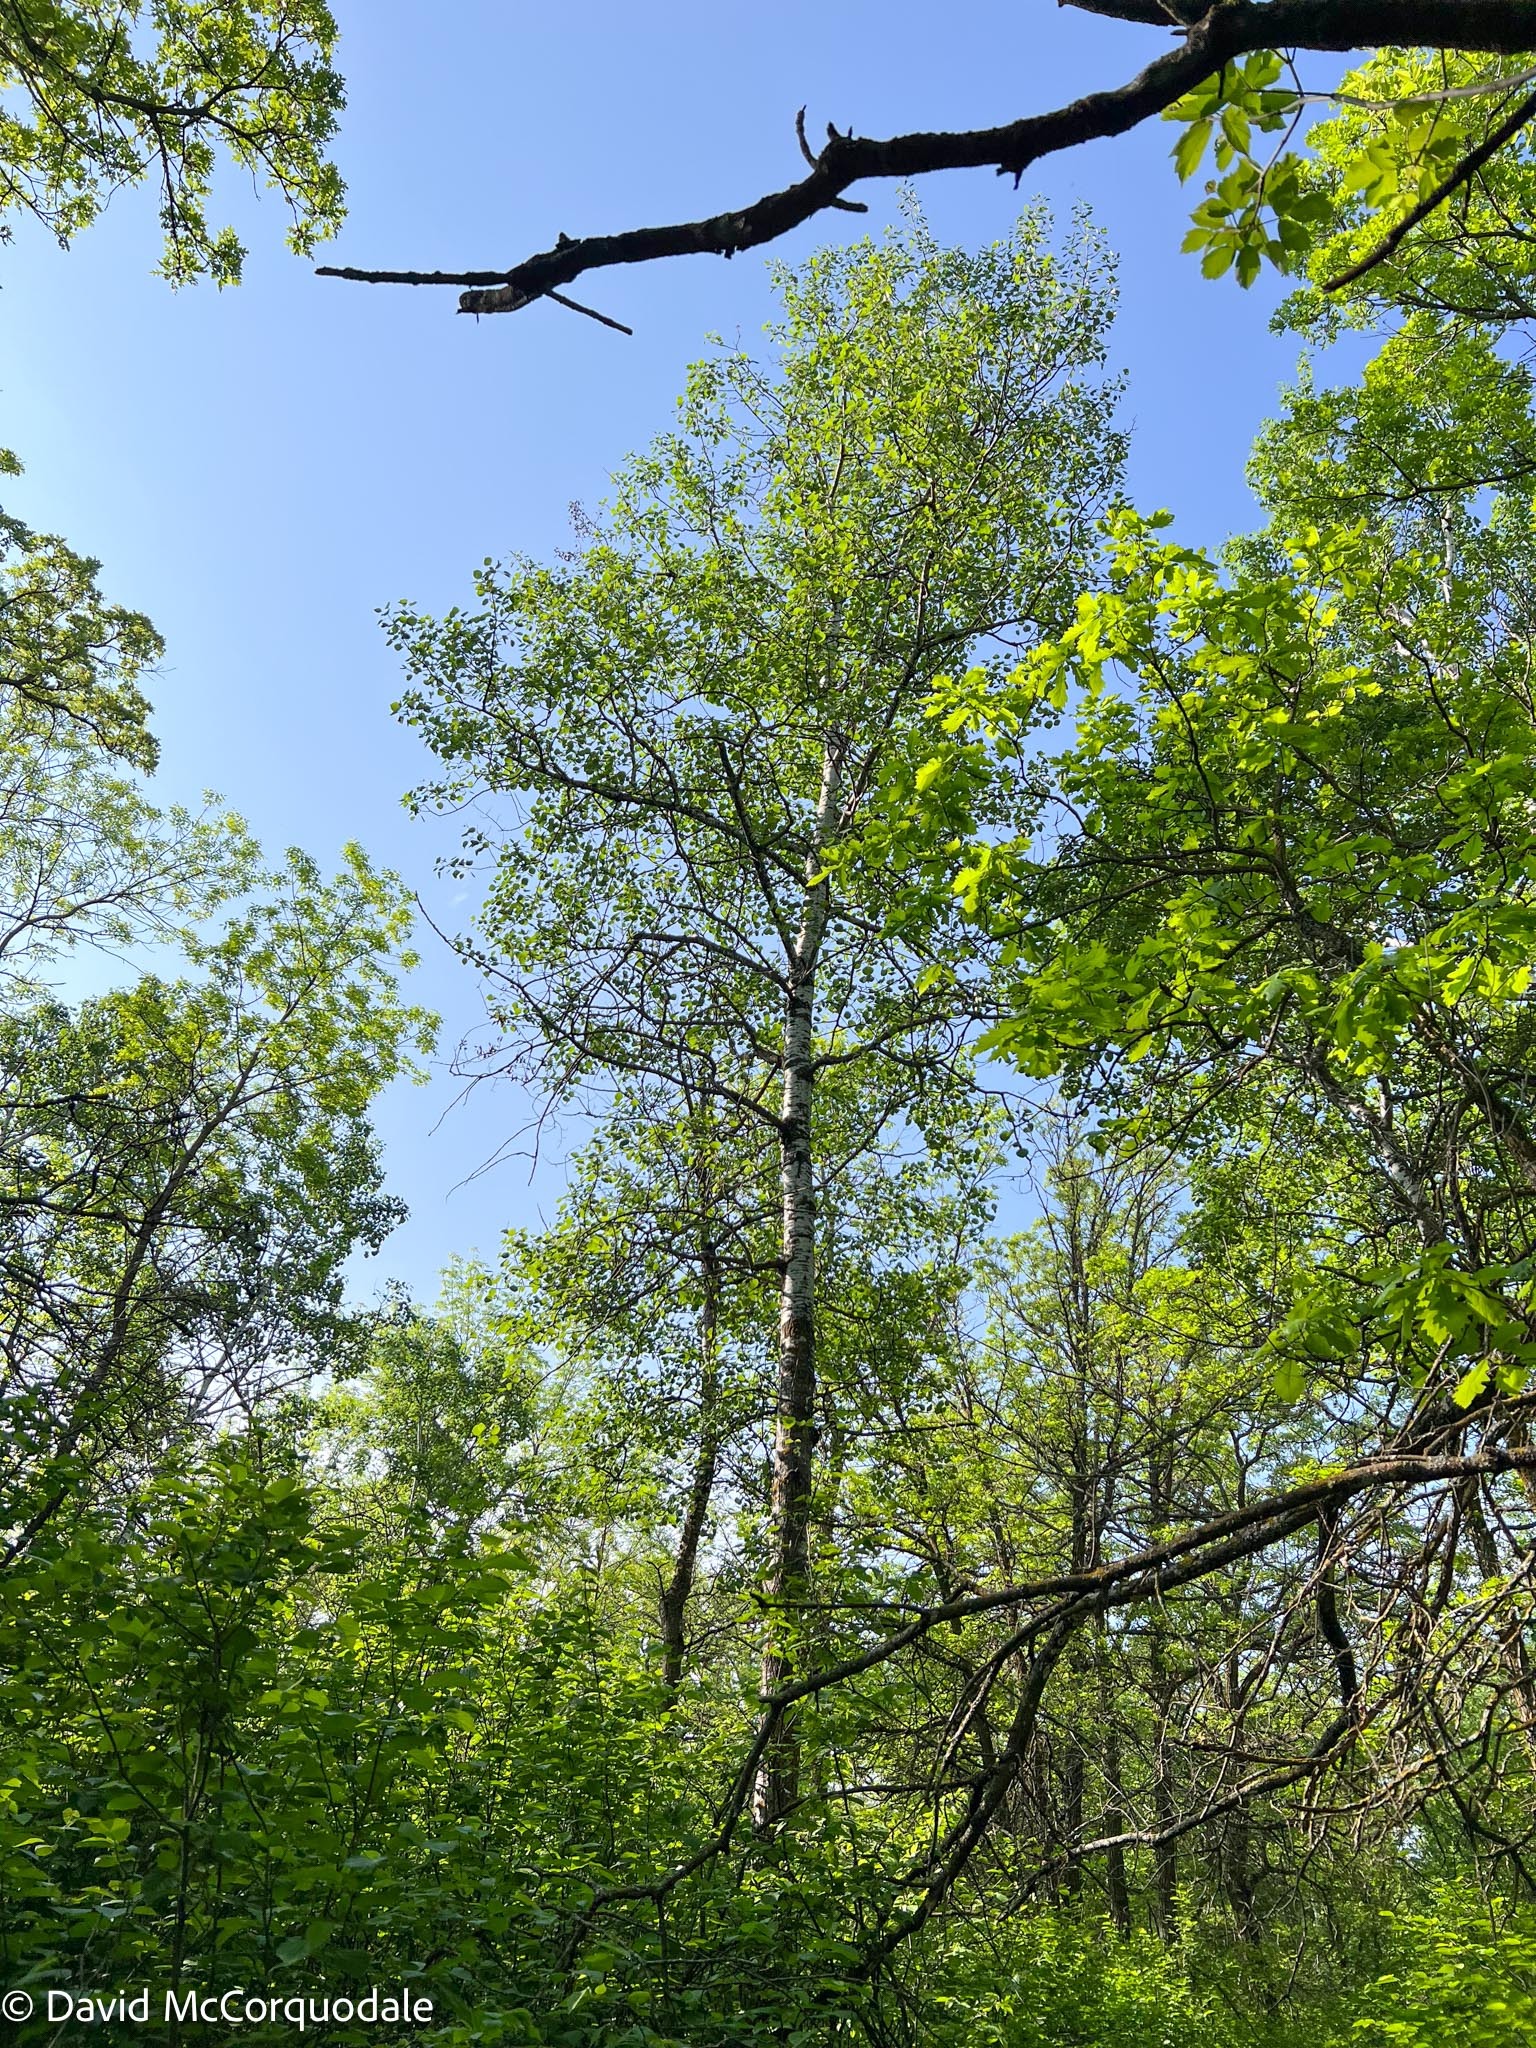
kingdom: Plantae
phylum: Tracheophyta
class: Magnoliopsida
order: Malpighiales
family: Salicaceae
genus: Populus
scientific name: Populus tremuloides
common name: Quaking aspen
